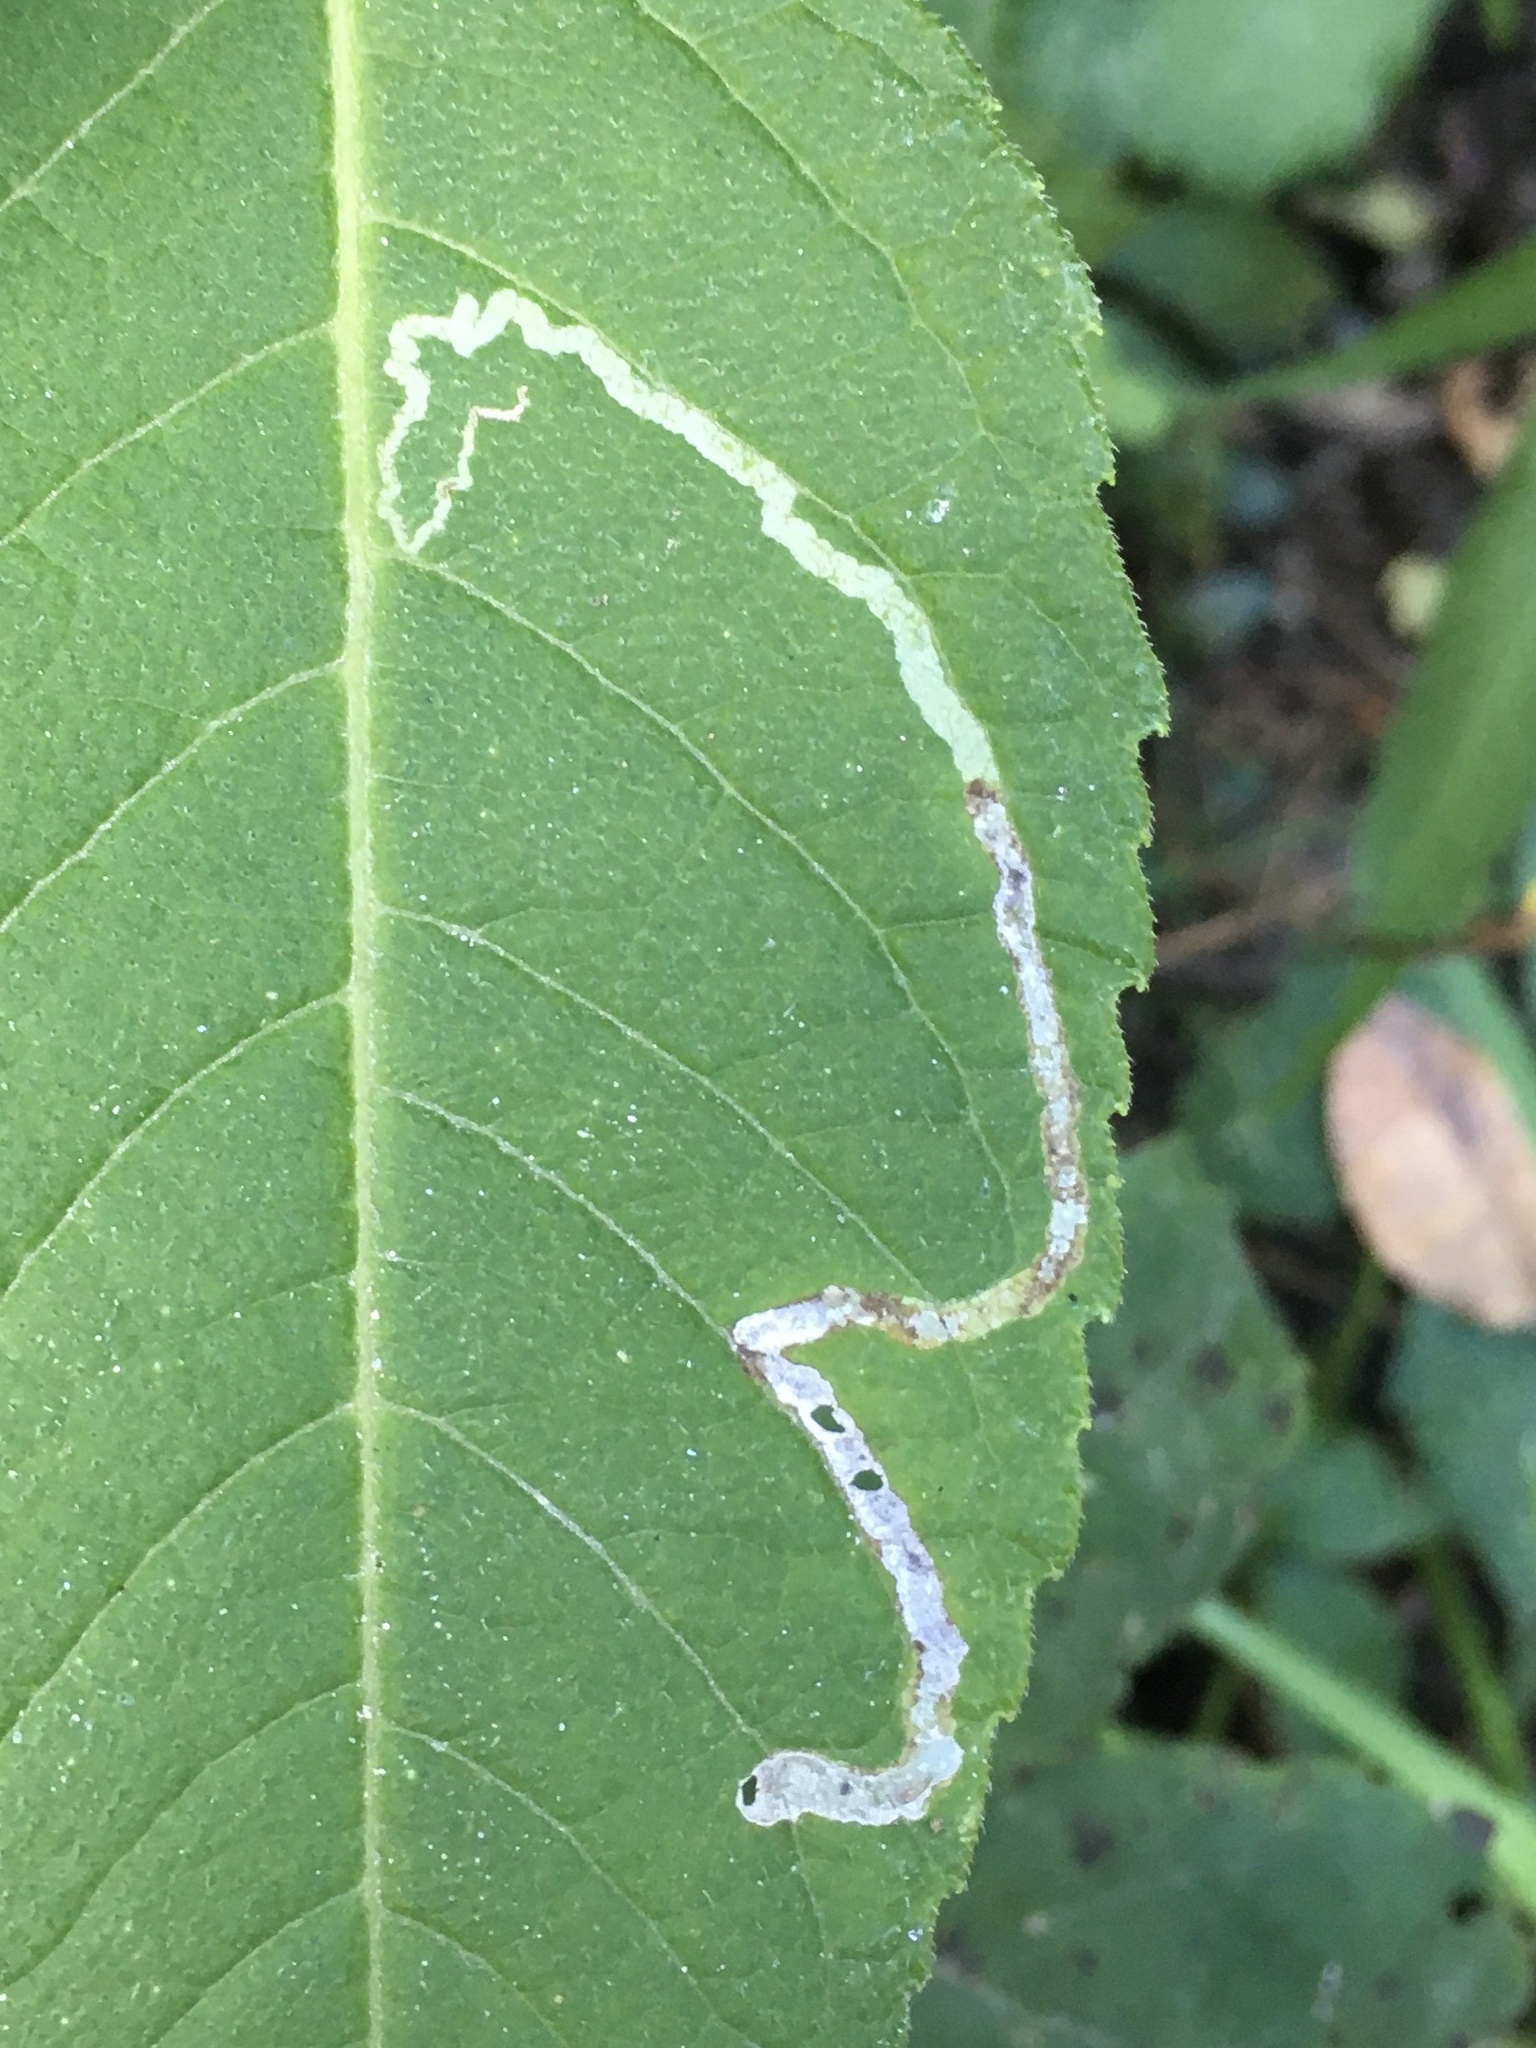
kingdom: Plantae
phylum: Tracheophyta
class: Magnoliopsida
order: Asterales
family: Asteraceae
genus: Verbesina
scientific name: Verbesina alternifolia
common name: Wingstem
